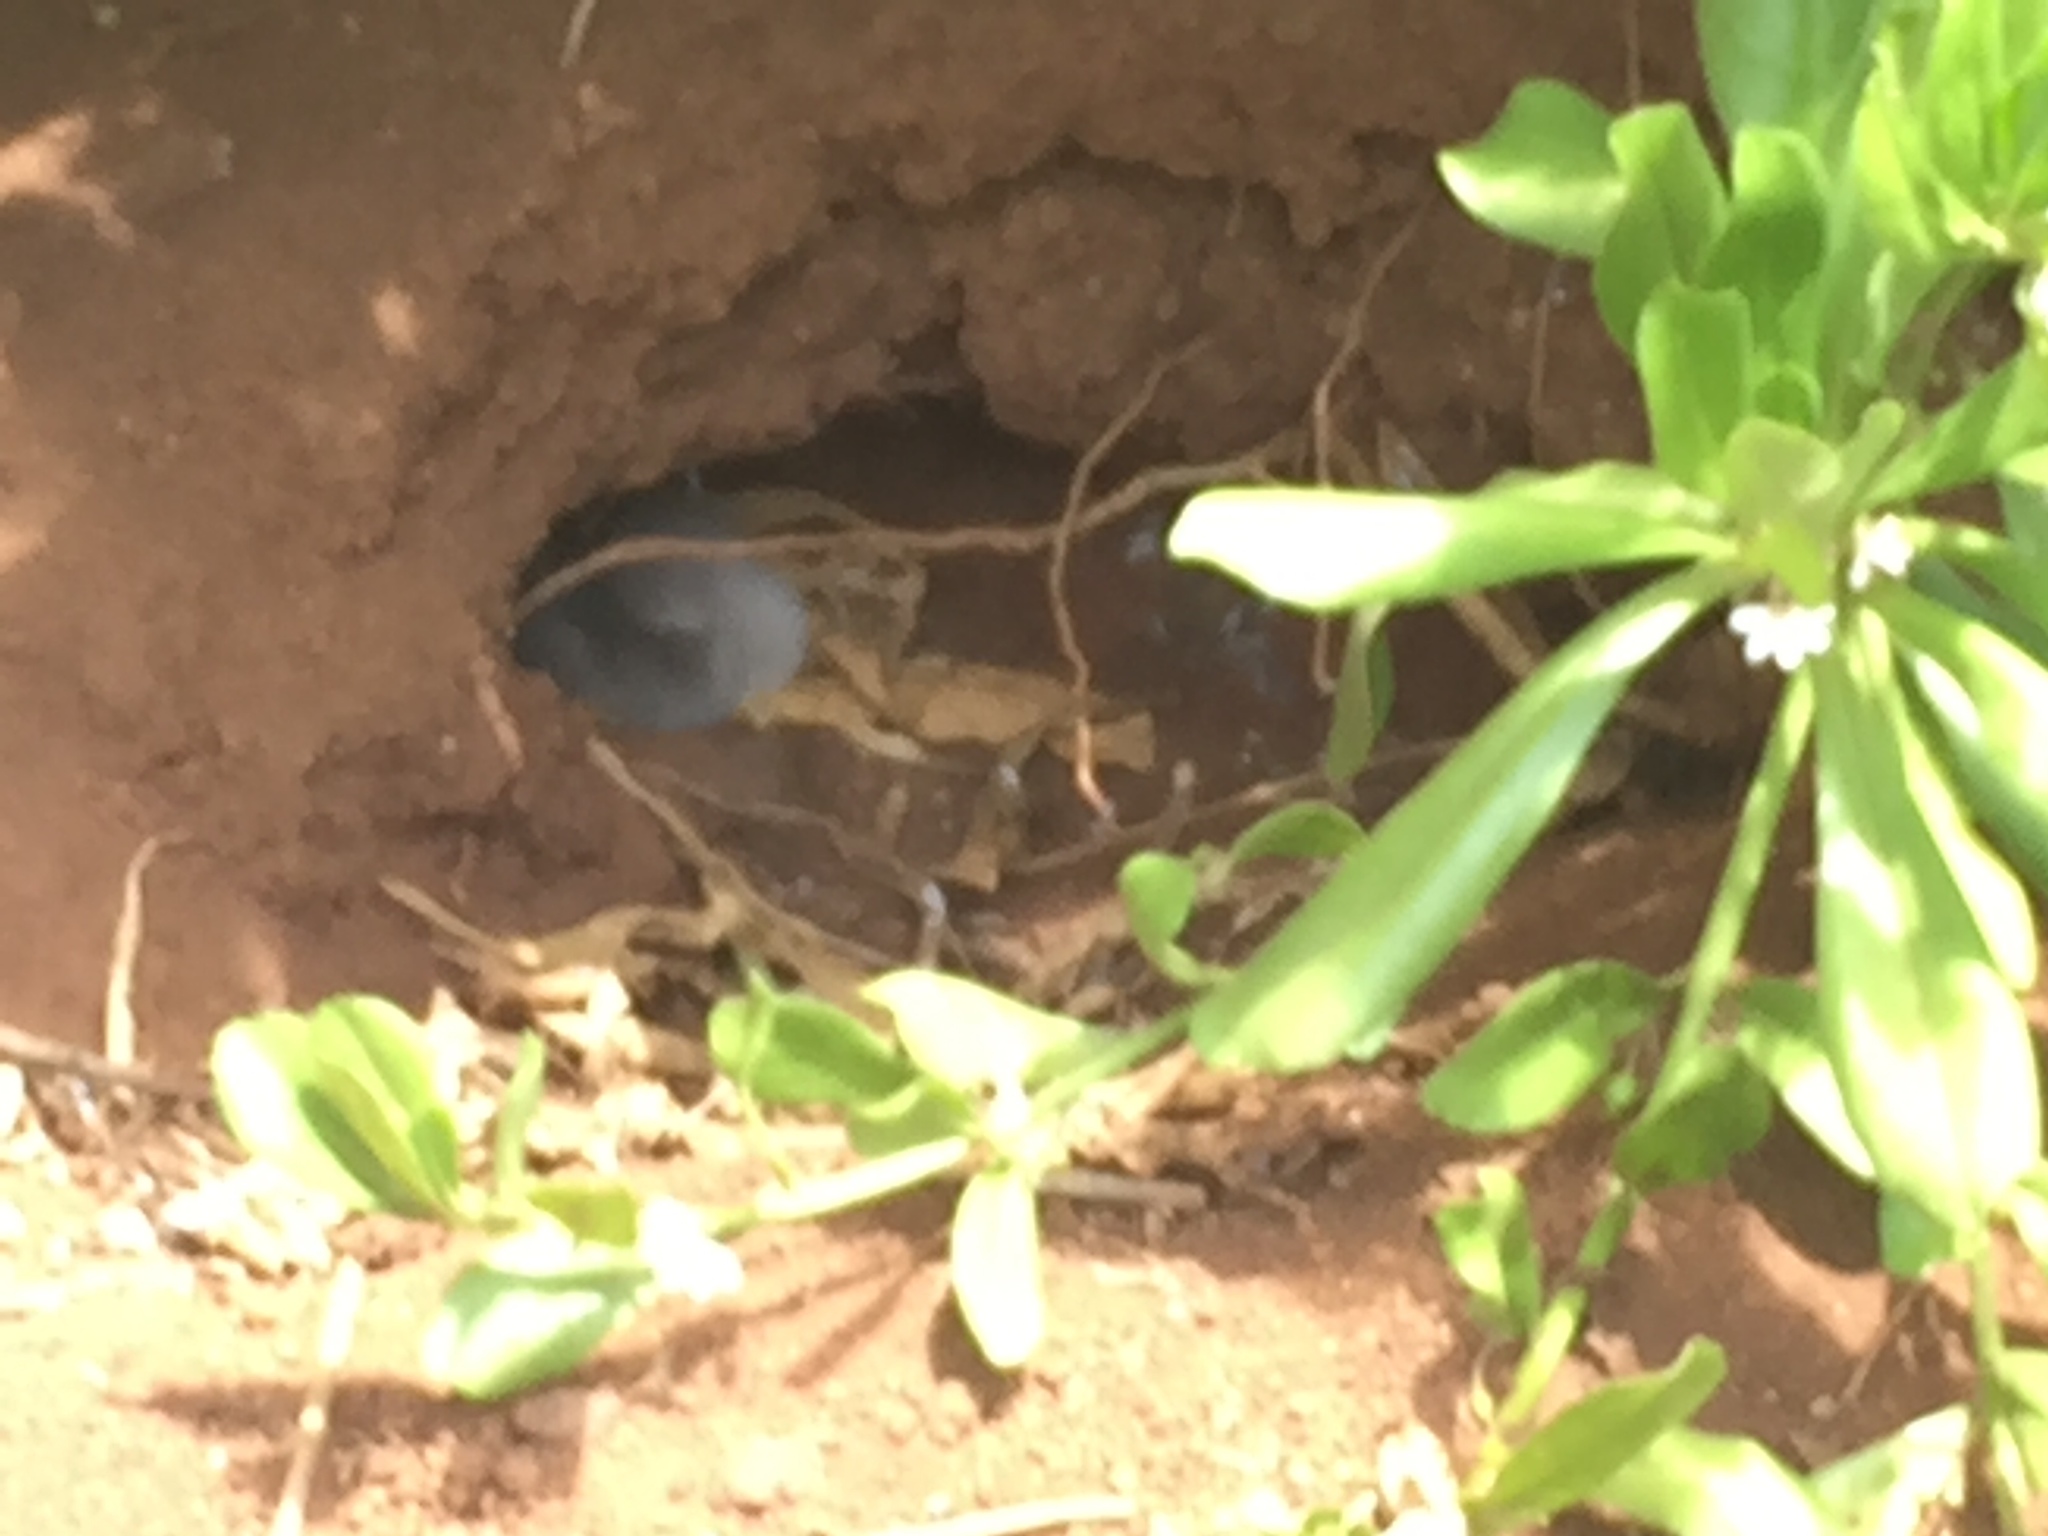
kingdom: Animalia
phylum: Chordata
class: Aves
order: Procellariiformes
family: Procellariidae
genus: Puffinus
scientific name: Puffinus pacificus
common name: Wedge-tailed shearwater
